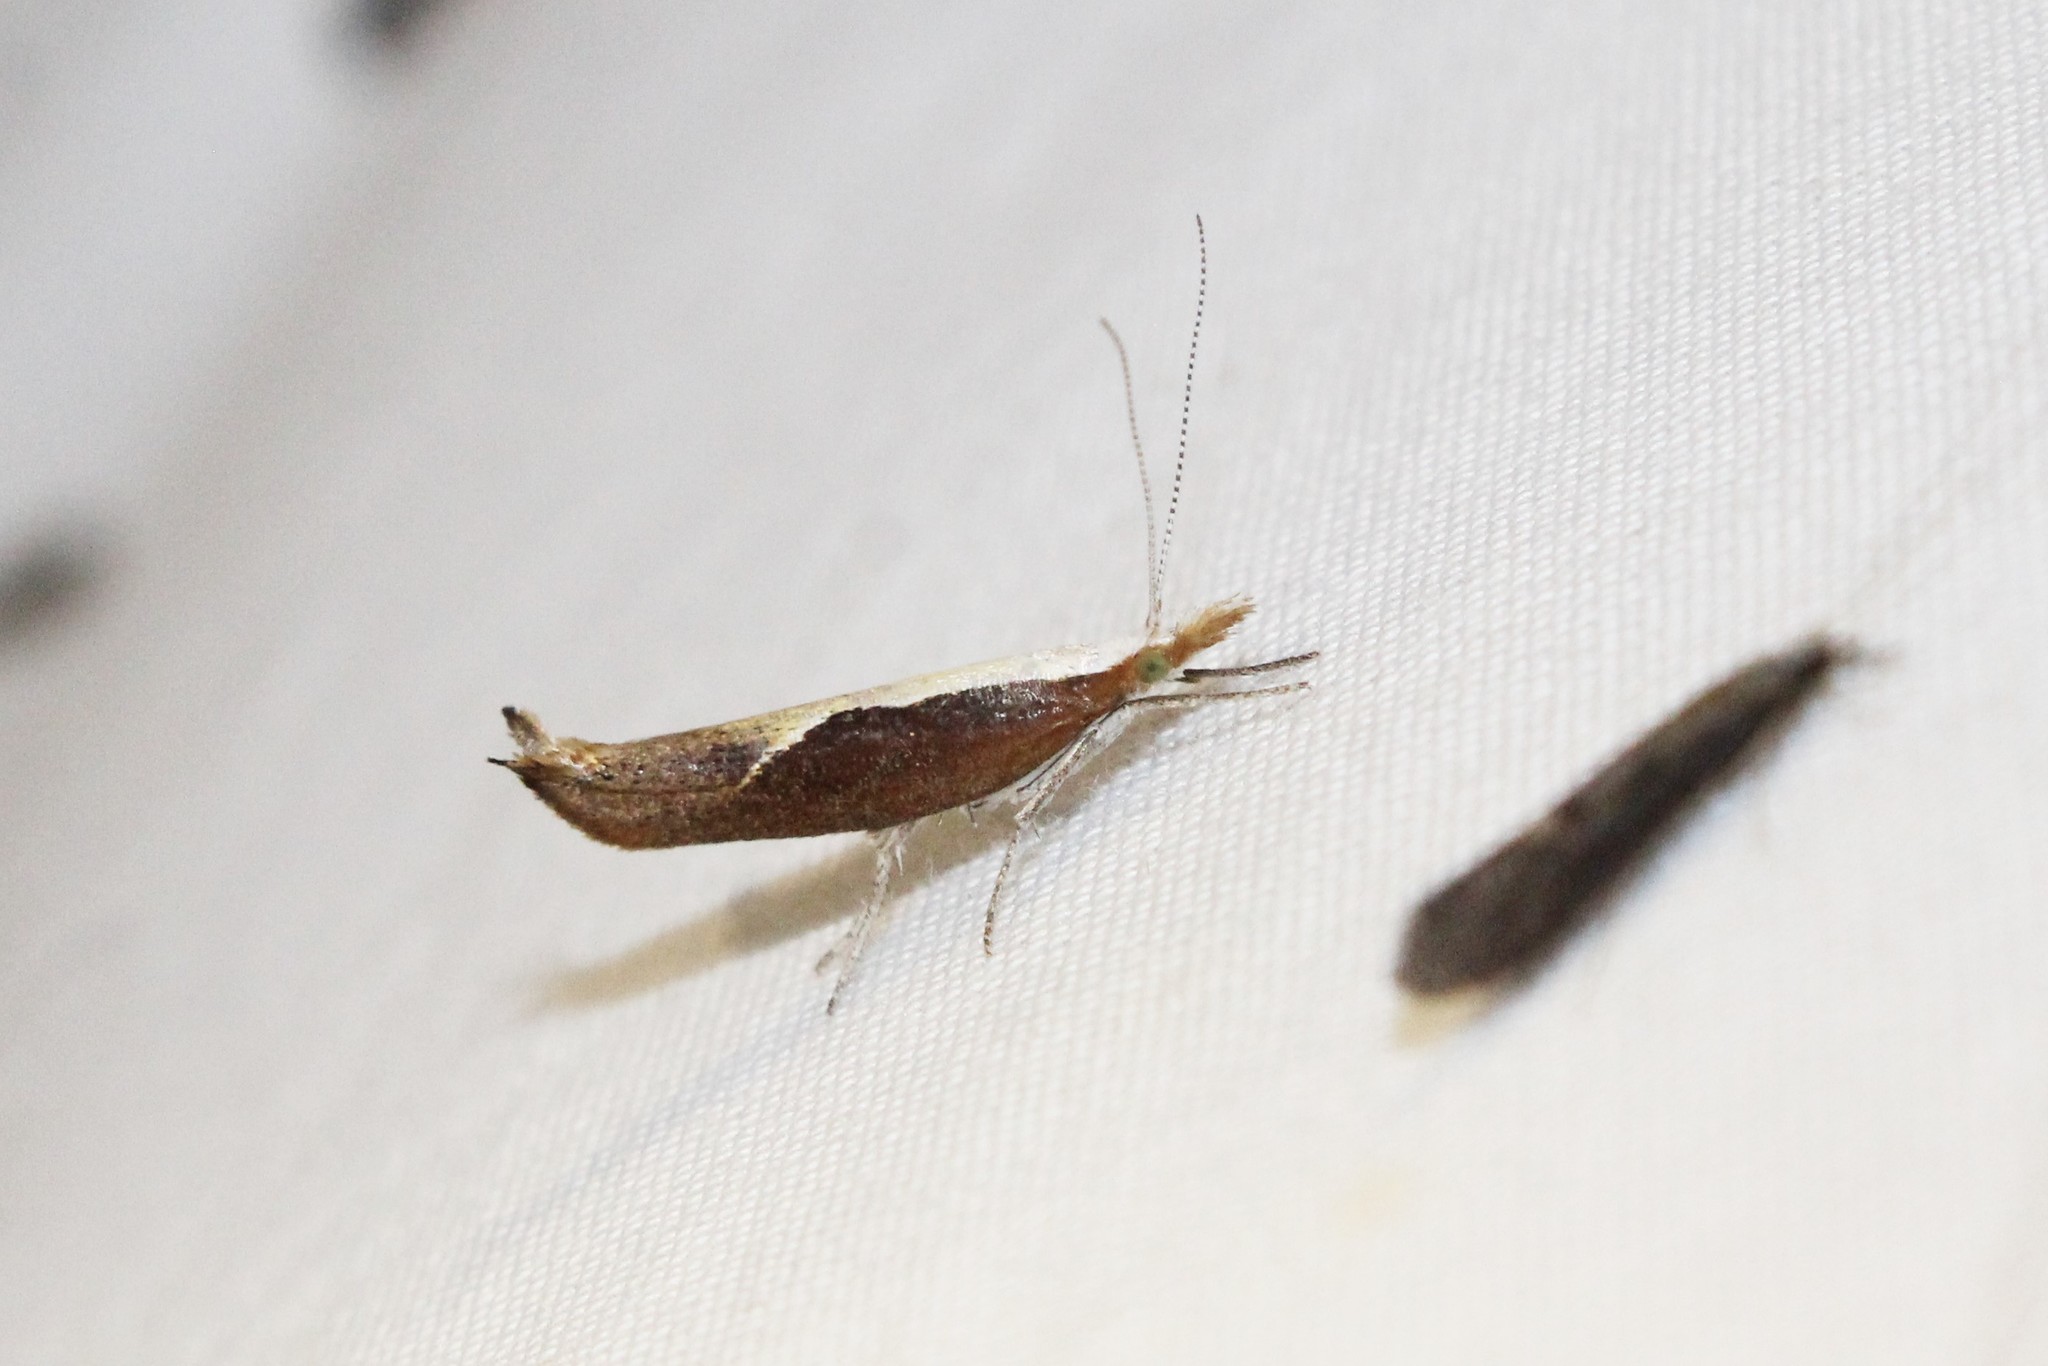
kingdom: Animalia
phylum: Arthropoda
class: Insecta
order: Lepidoptera
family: Ypsolophidae
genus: Ypsolopha
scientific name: Ypsolopha dentella
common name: Honeysuckle moth
